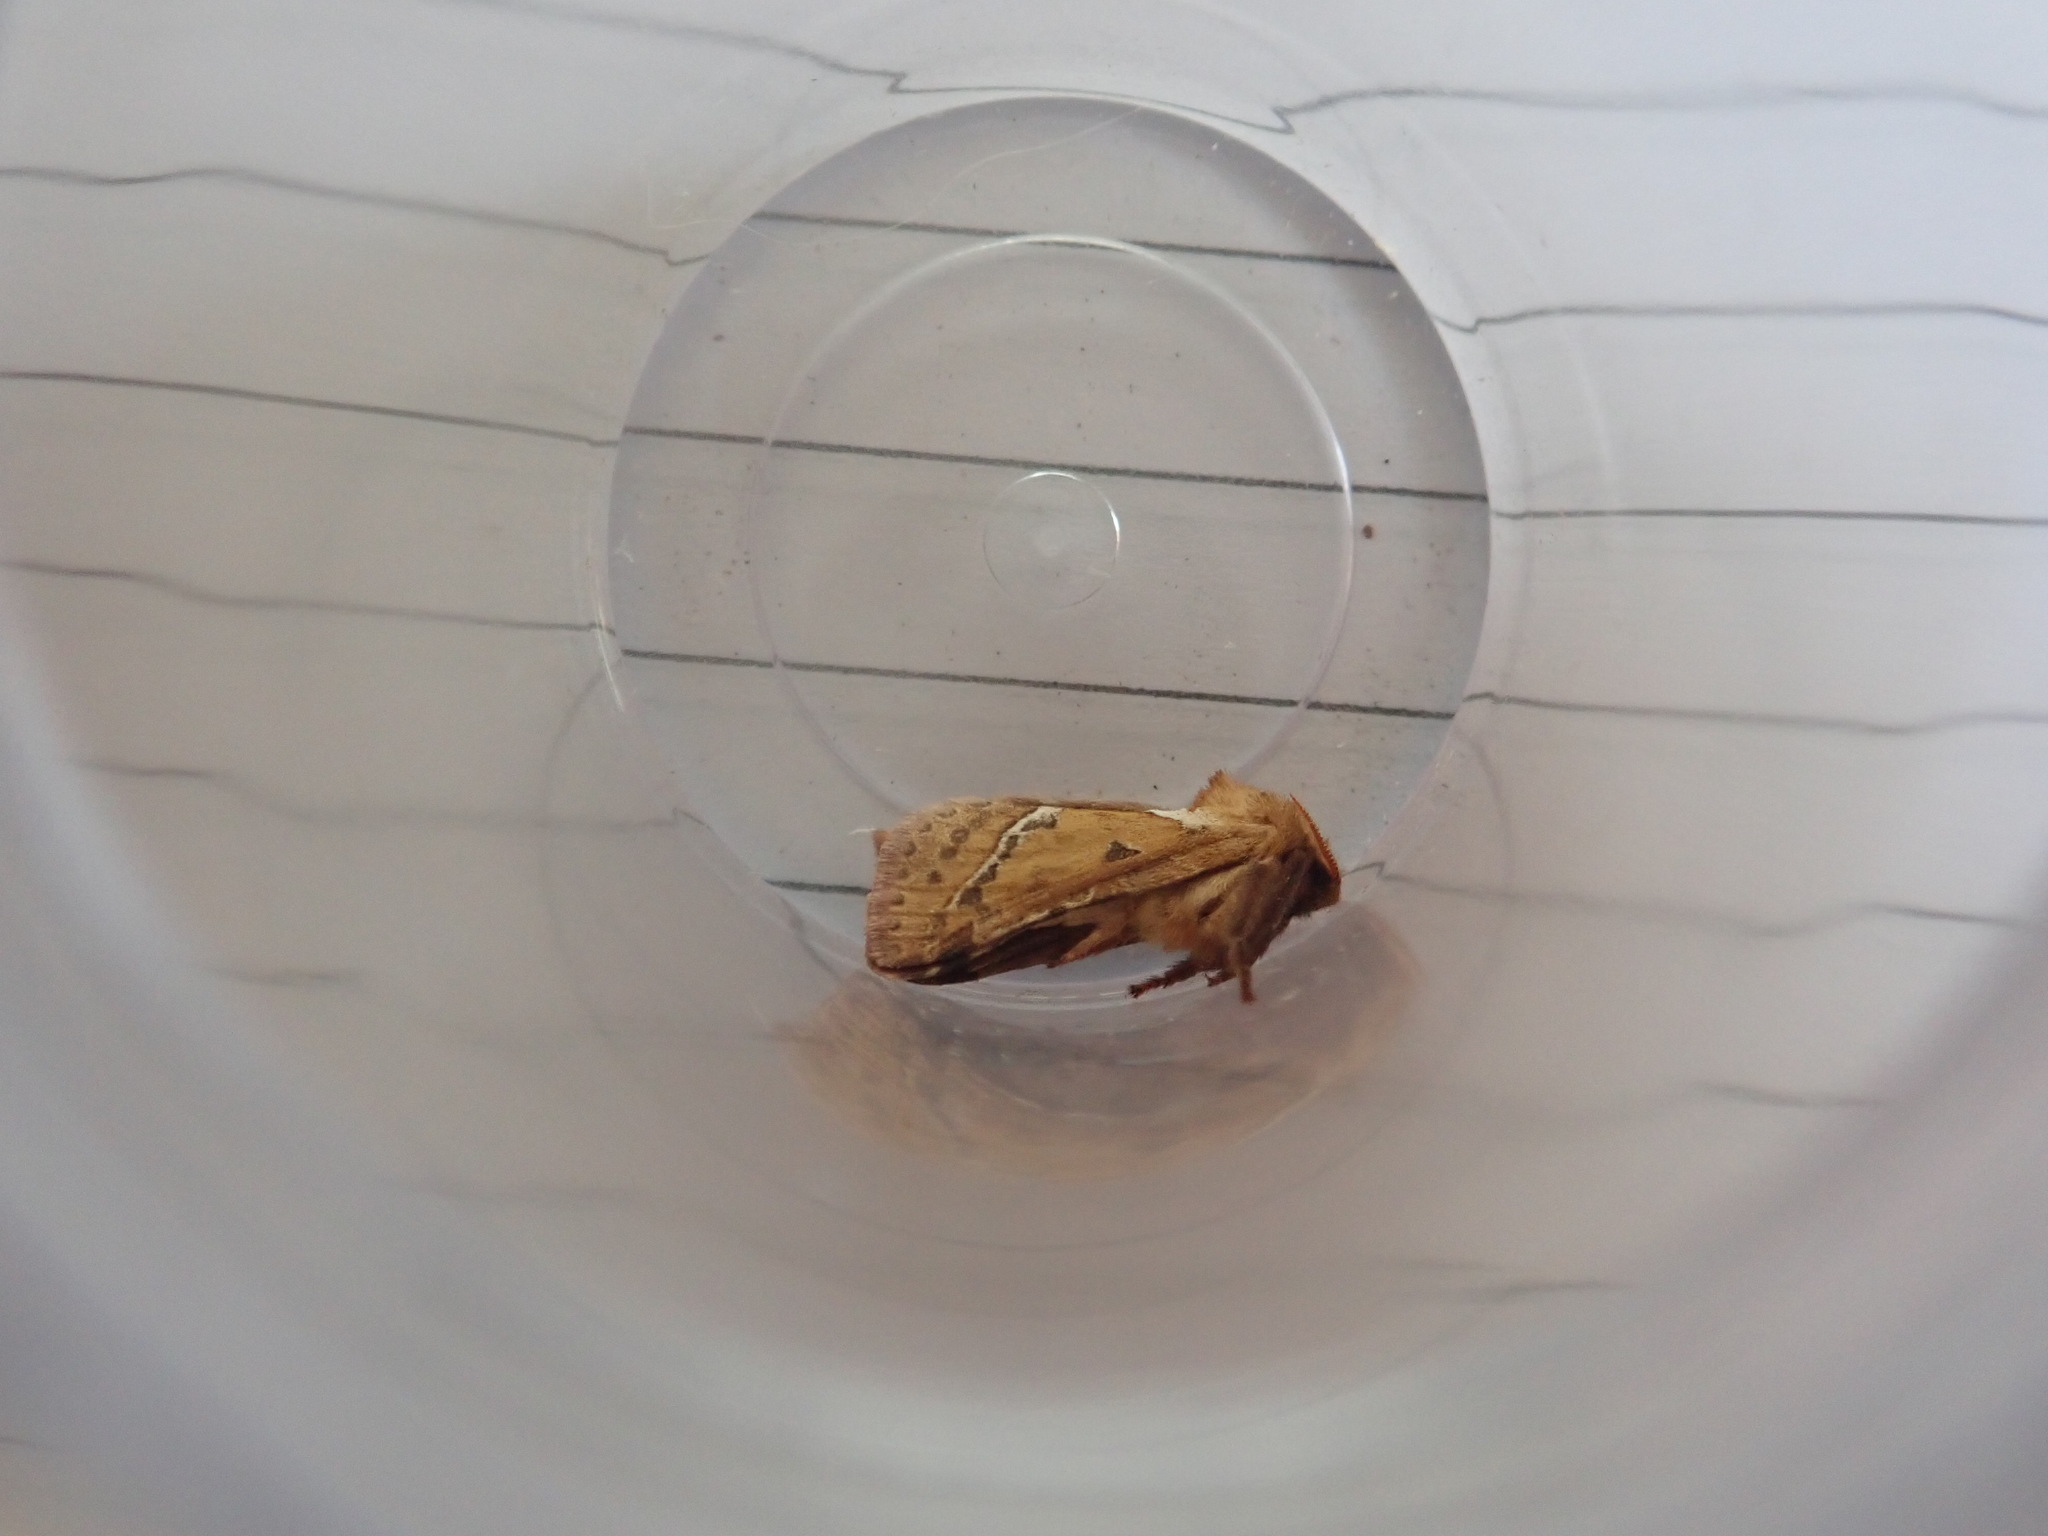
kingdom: Animalia
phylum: Arthropoda
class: Insecta
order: Lepidoptera
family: Hepialidae
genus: Triodia
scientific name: Triodia sylvina
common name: Orange swift
